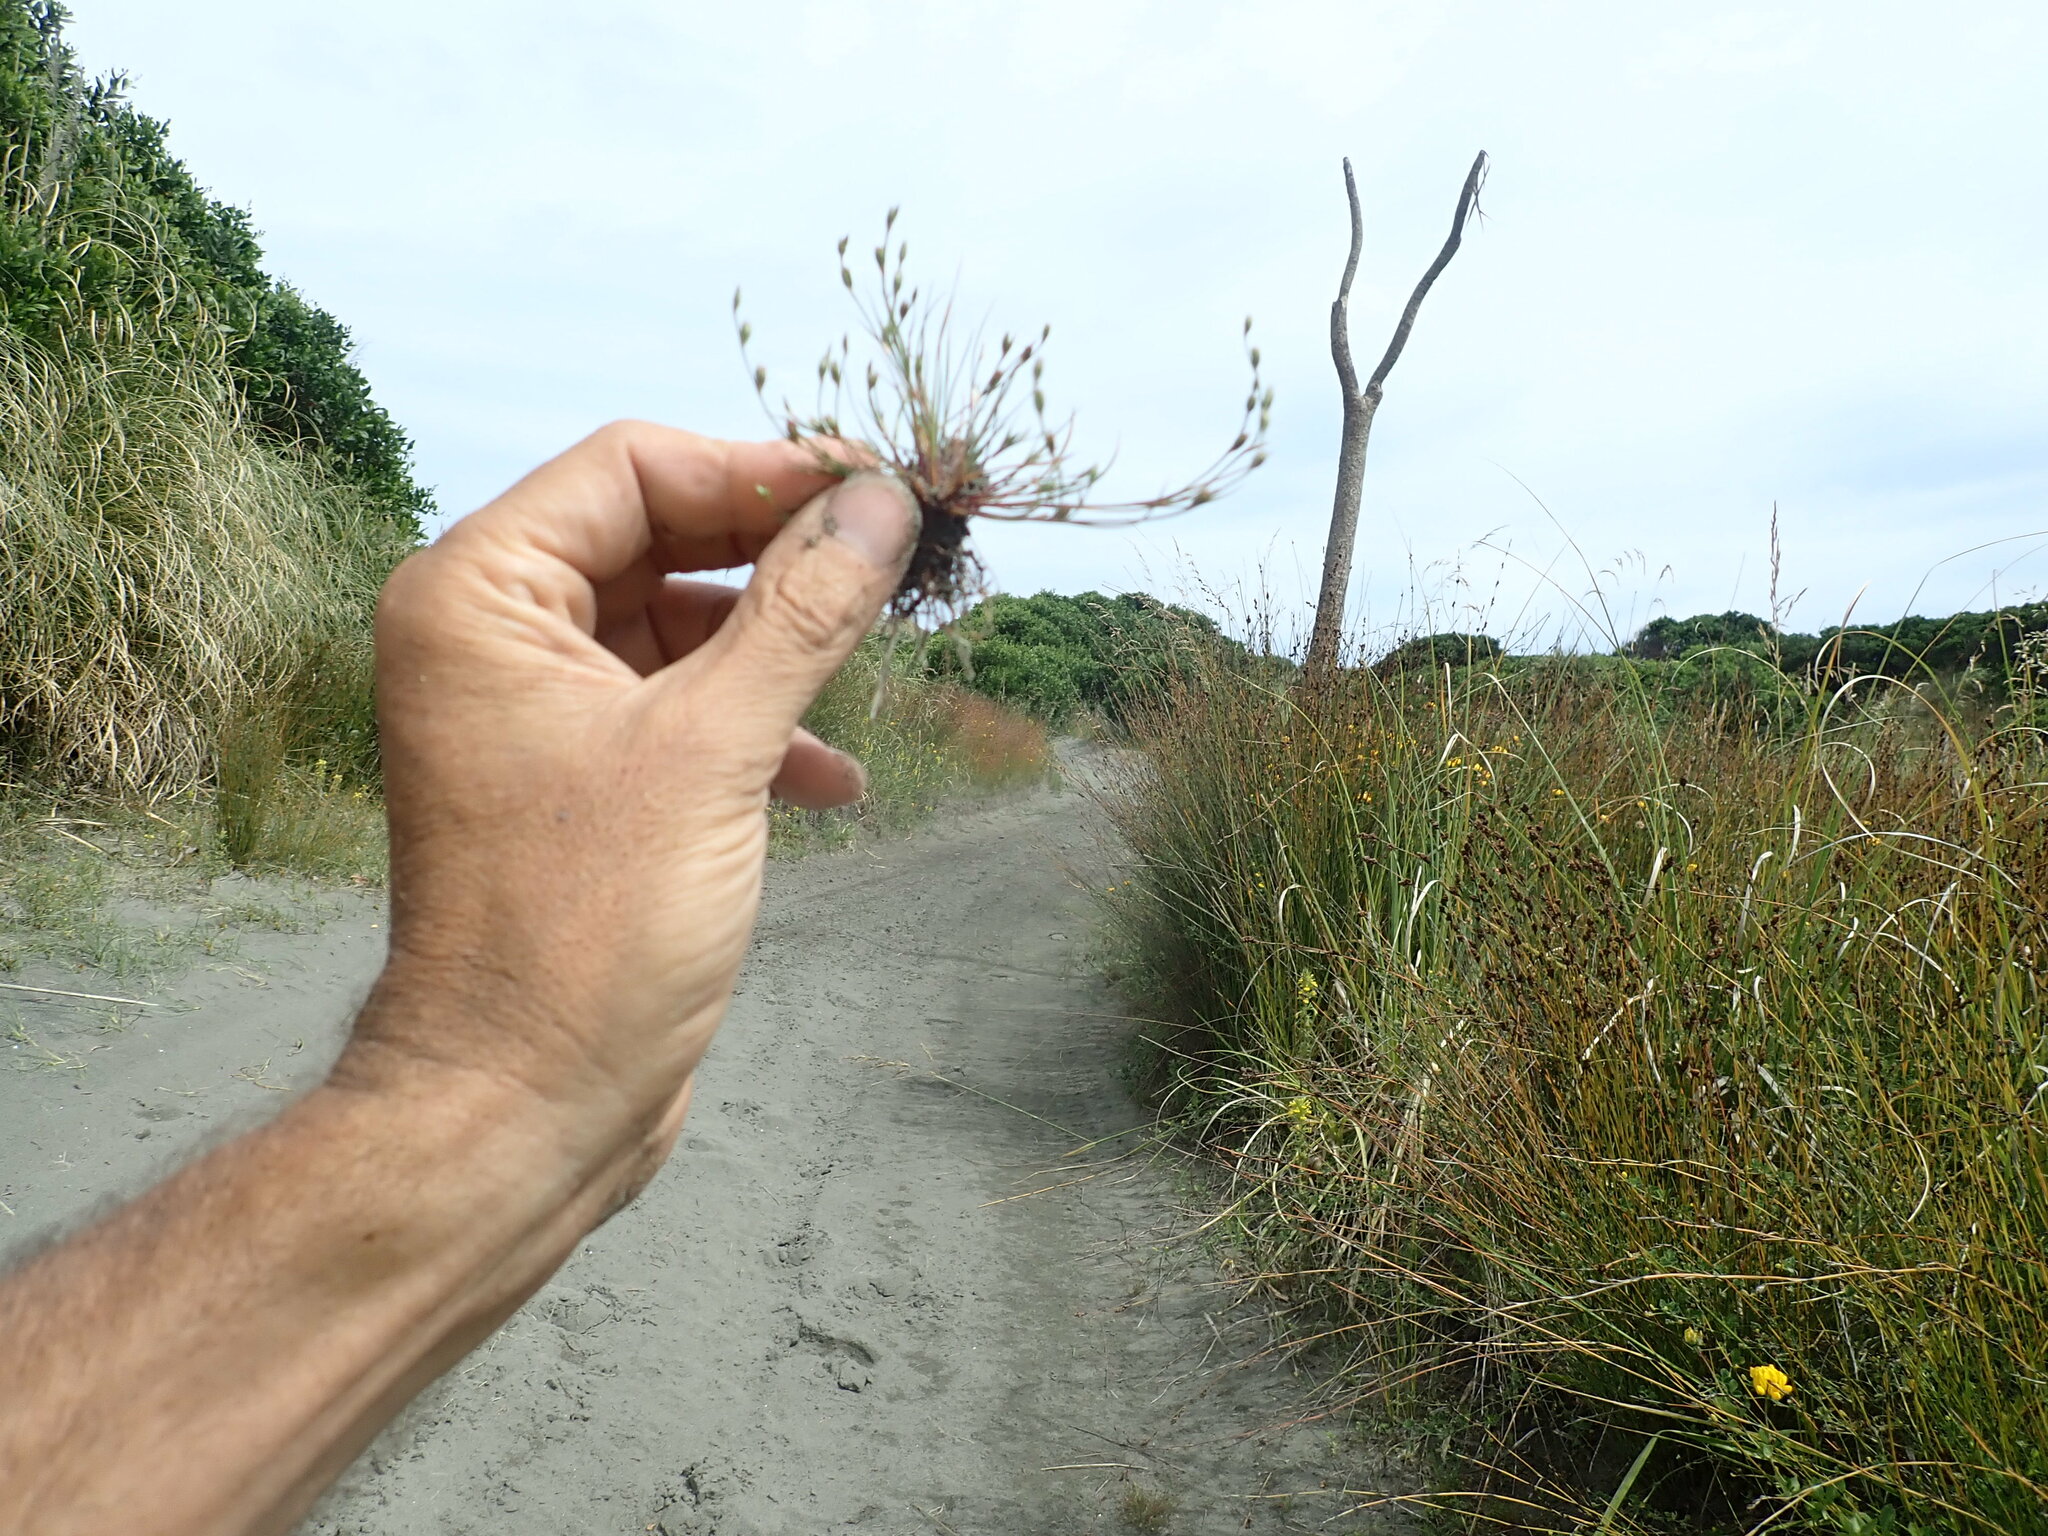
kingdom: Plantae
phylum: Tracheophyta
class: Liliopsida
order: Poales
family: Juncaceae
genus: Juncus
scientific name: Juncus bufonius
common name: Toad rush
